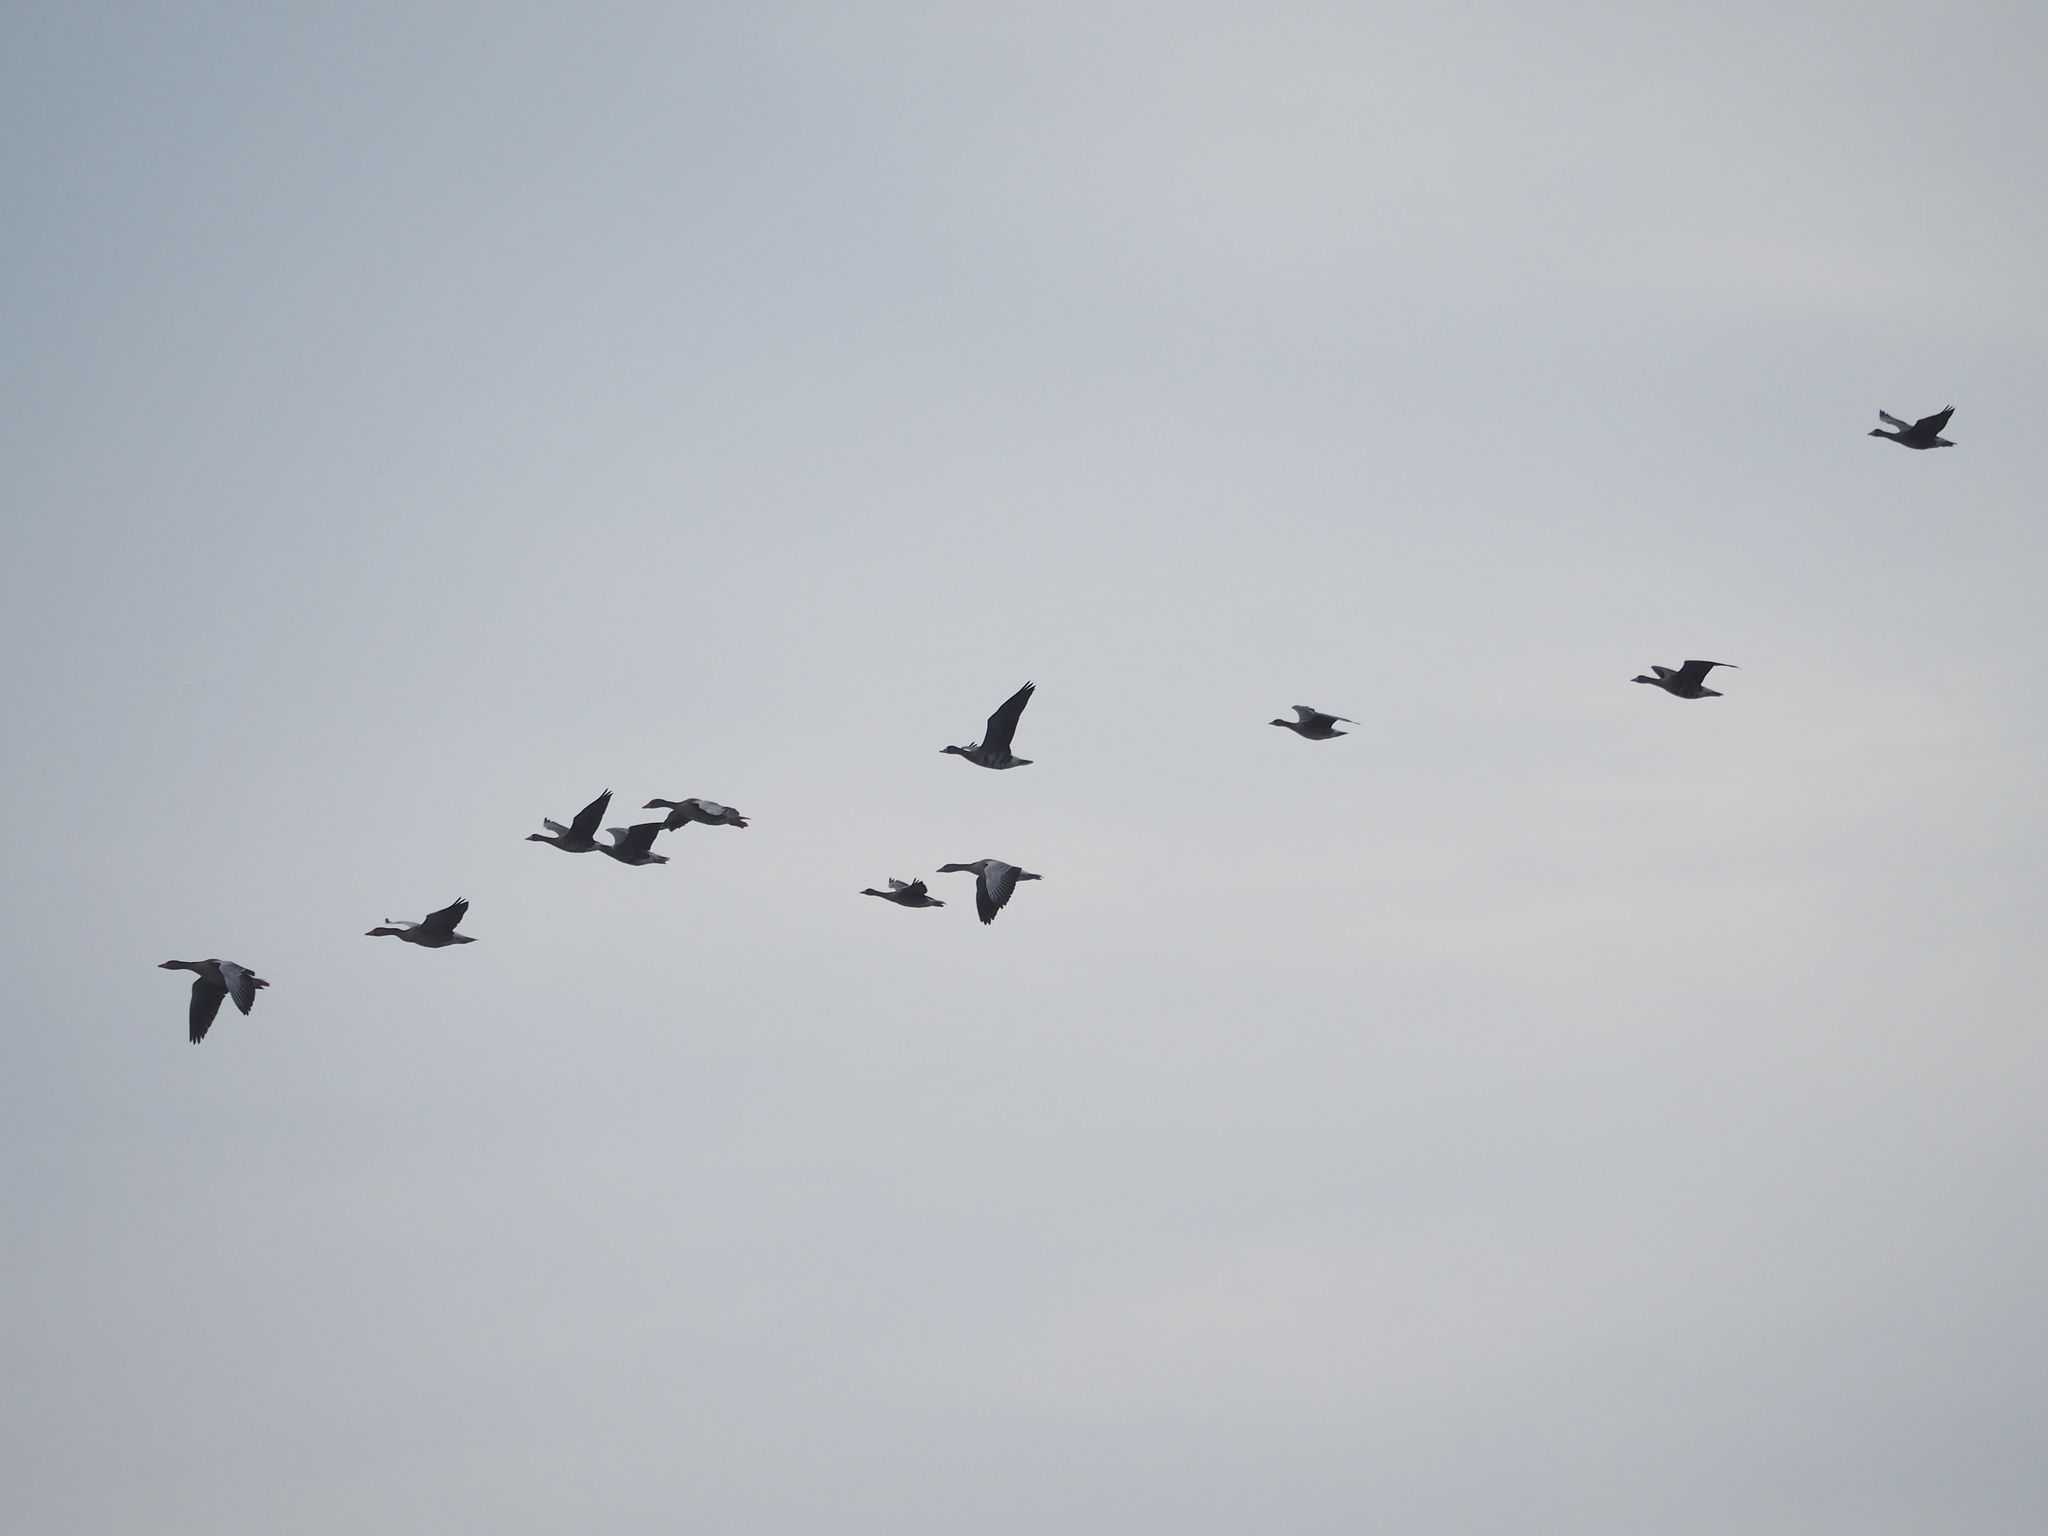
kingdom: Animalia
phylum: Chordata
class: Aves
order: Anseriformes
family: Anatidae
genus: Anser
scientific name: Anser albifrons
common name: Greater white-fronted goose
